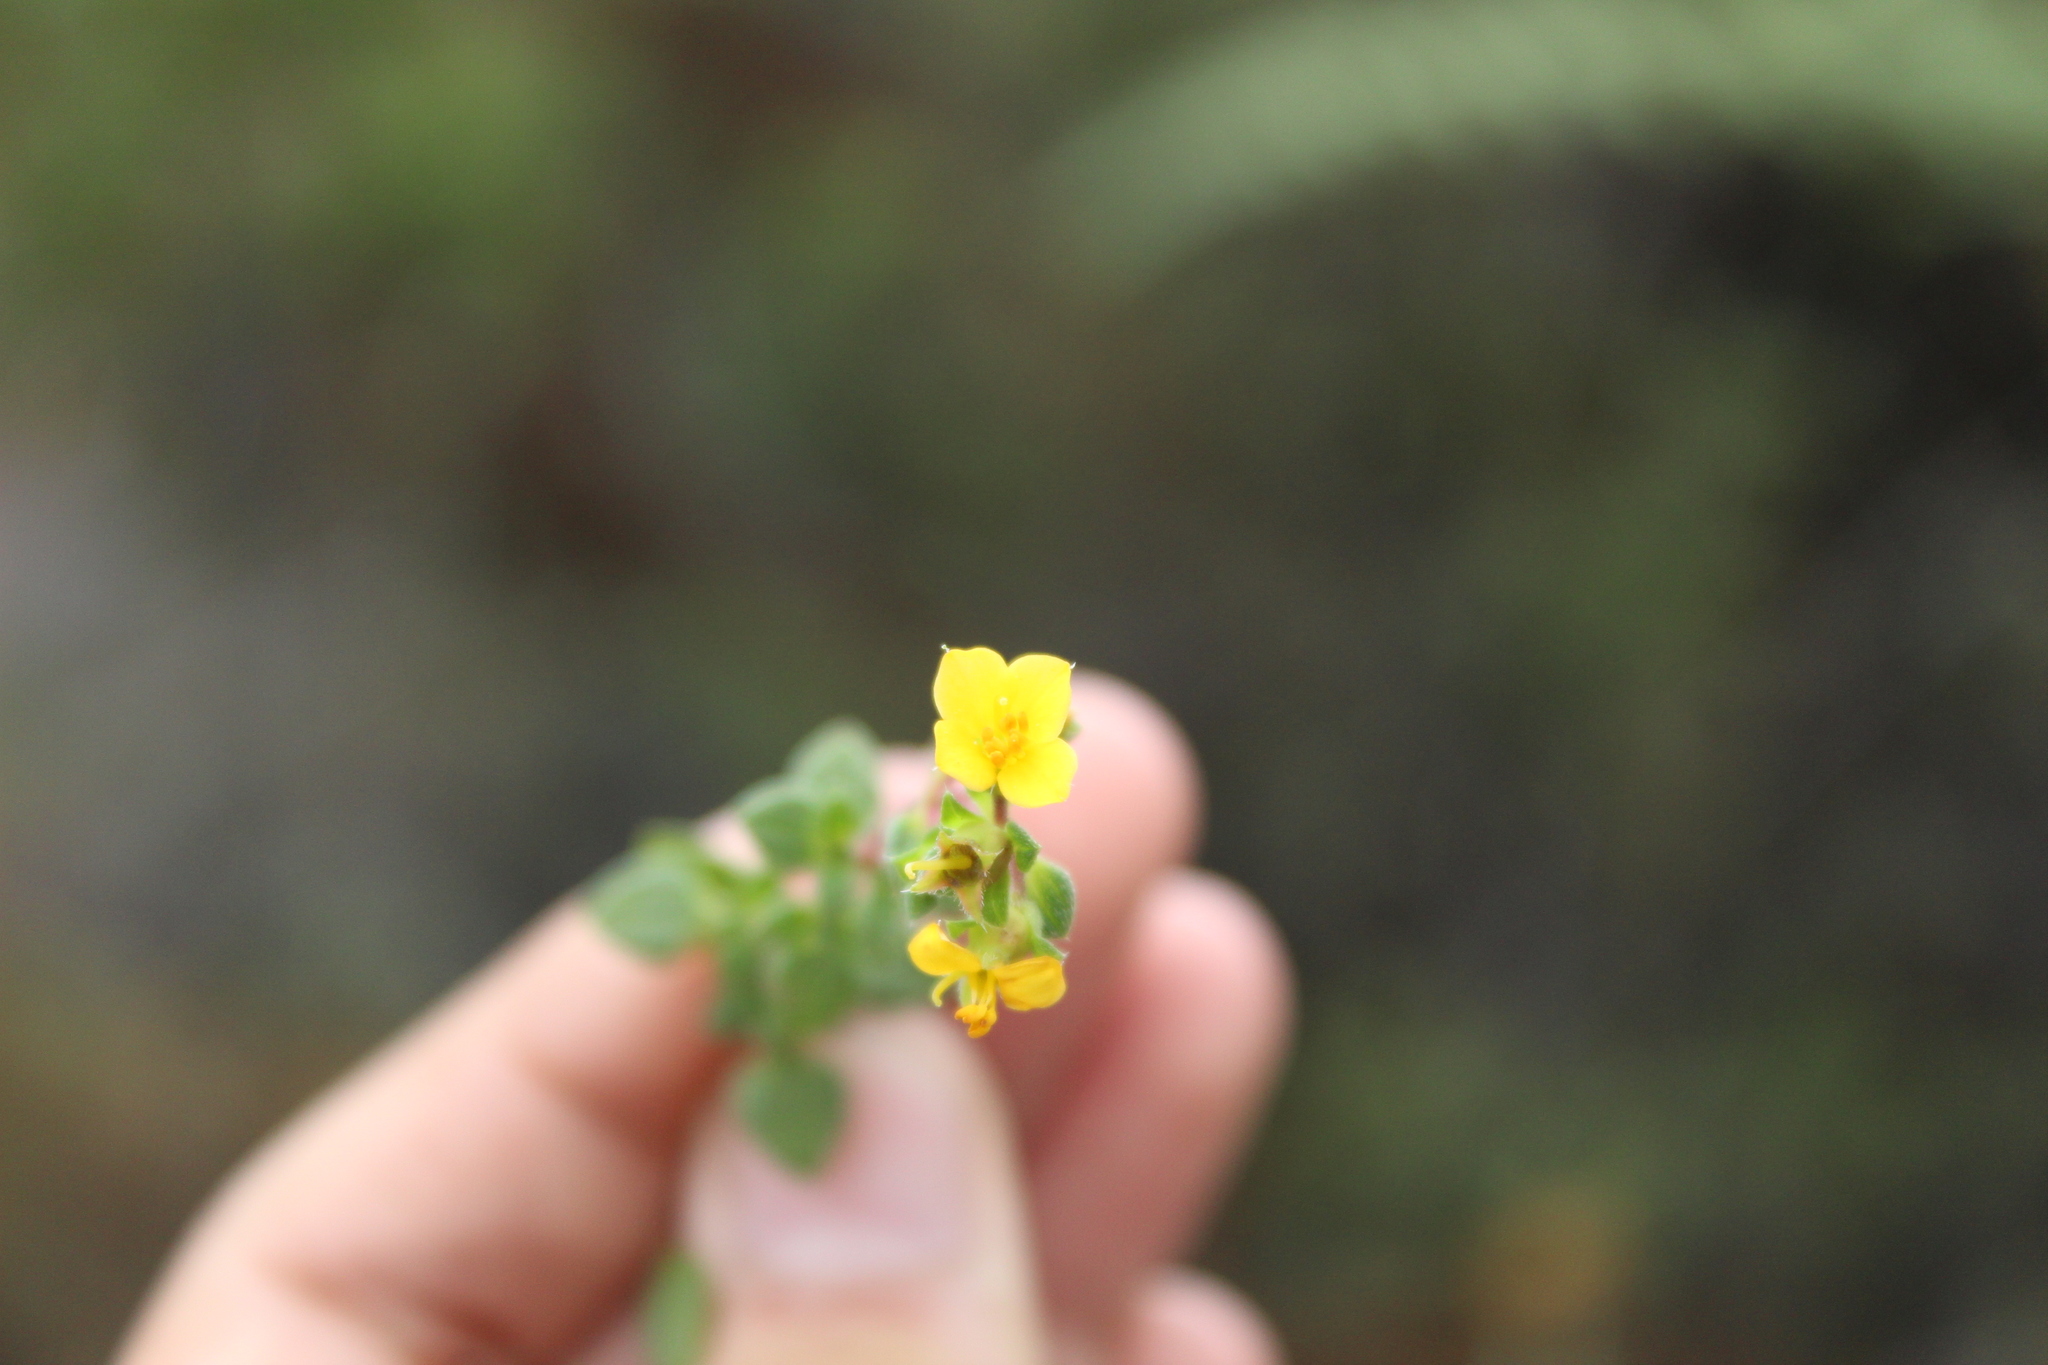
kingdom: Plantae
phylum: Tracheophyta
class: Magnoliopsida
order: Myrtales
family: Melastomataceae
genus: Chaetolepis
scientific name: Chaetolepis microphylla
